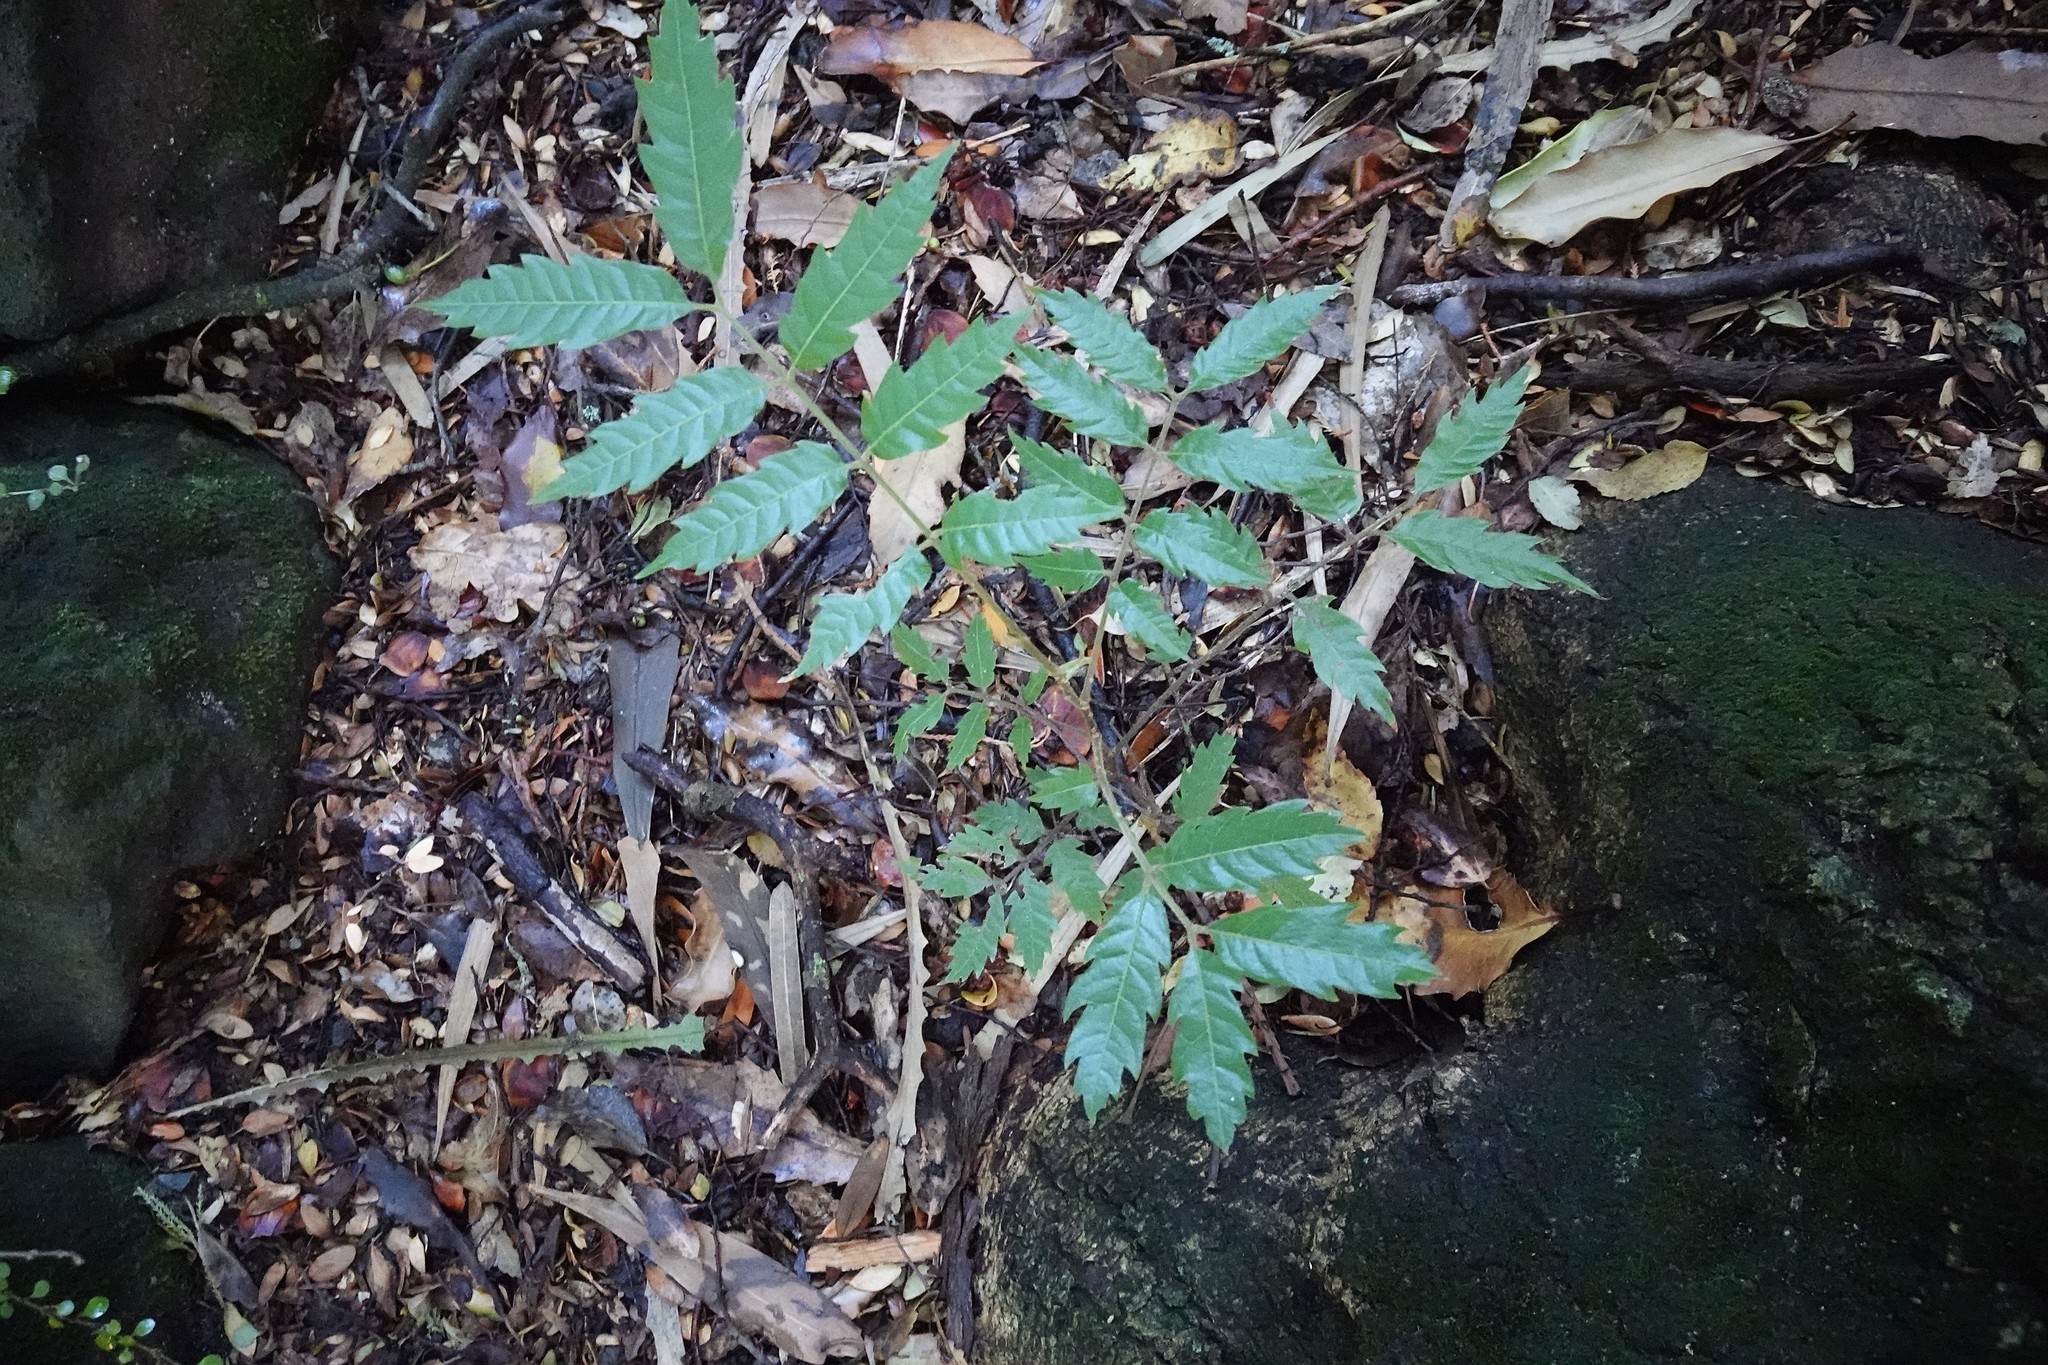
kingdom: Plantae
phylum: Tracheophyta
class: Magnoliopsida
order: Sapindales
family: Sapindaceae
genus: Alectryon
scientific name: Alectryon excelsus
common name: Three kings titoki
